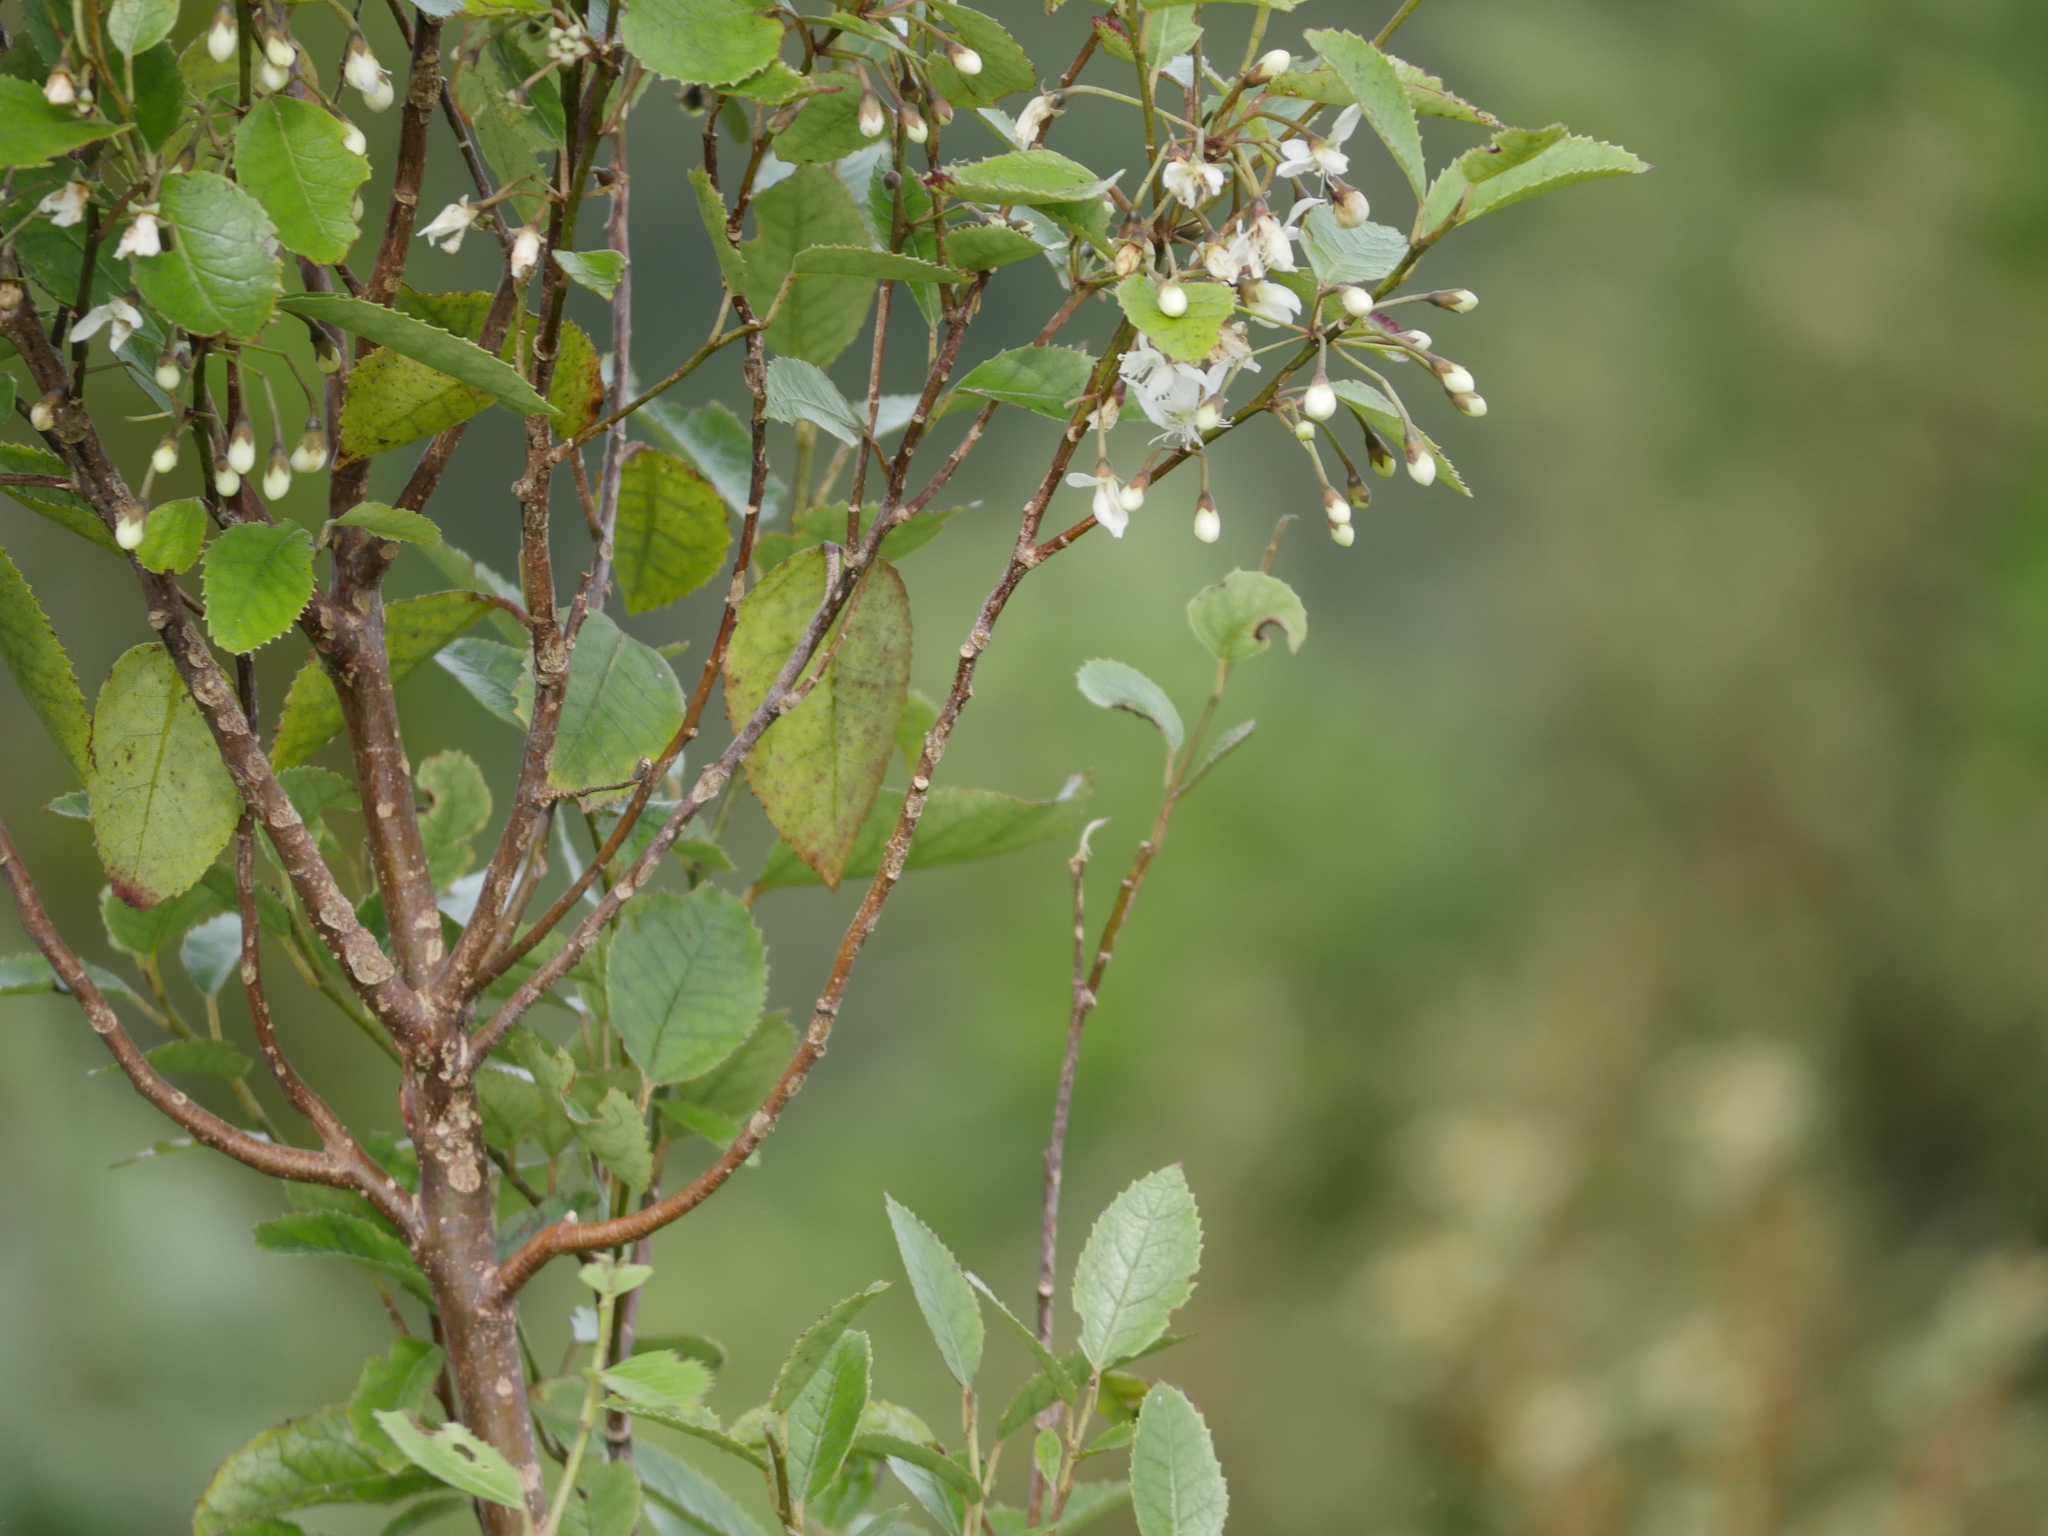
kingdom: Plantae
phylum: Tracheophyta
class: Magnoliopsida
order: Malvales
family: Malvaceae
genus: Hoheria
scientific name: Hoheria populnea
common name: Lacebark
